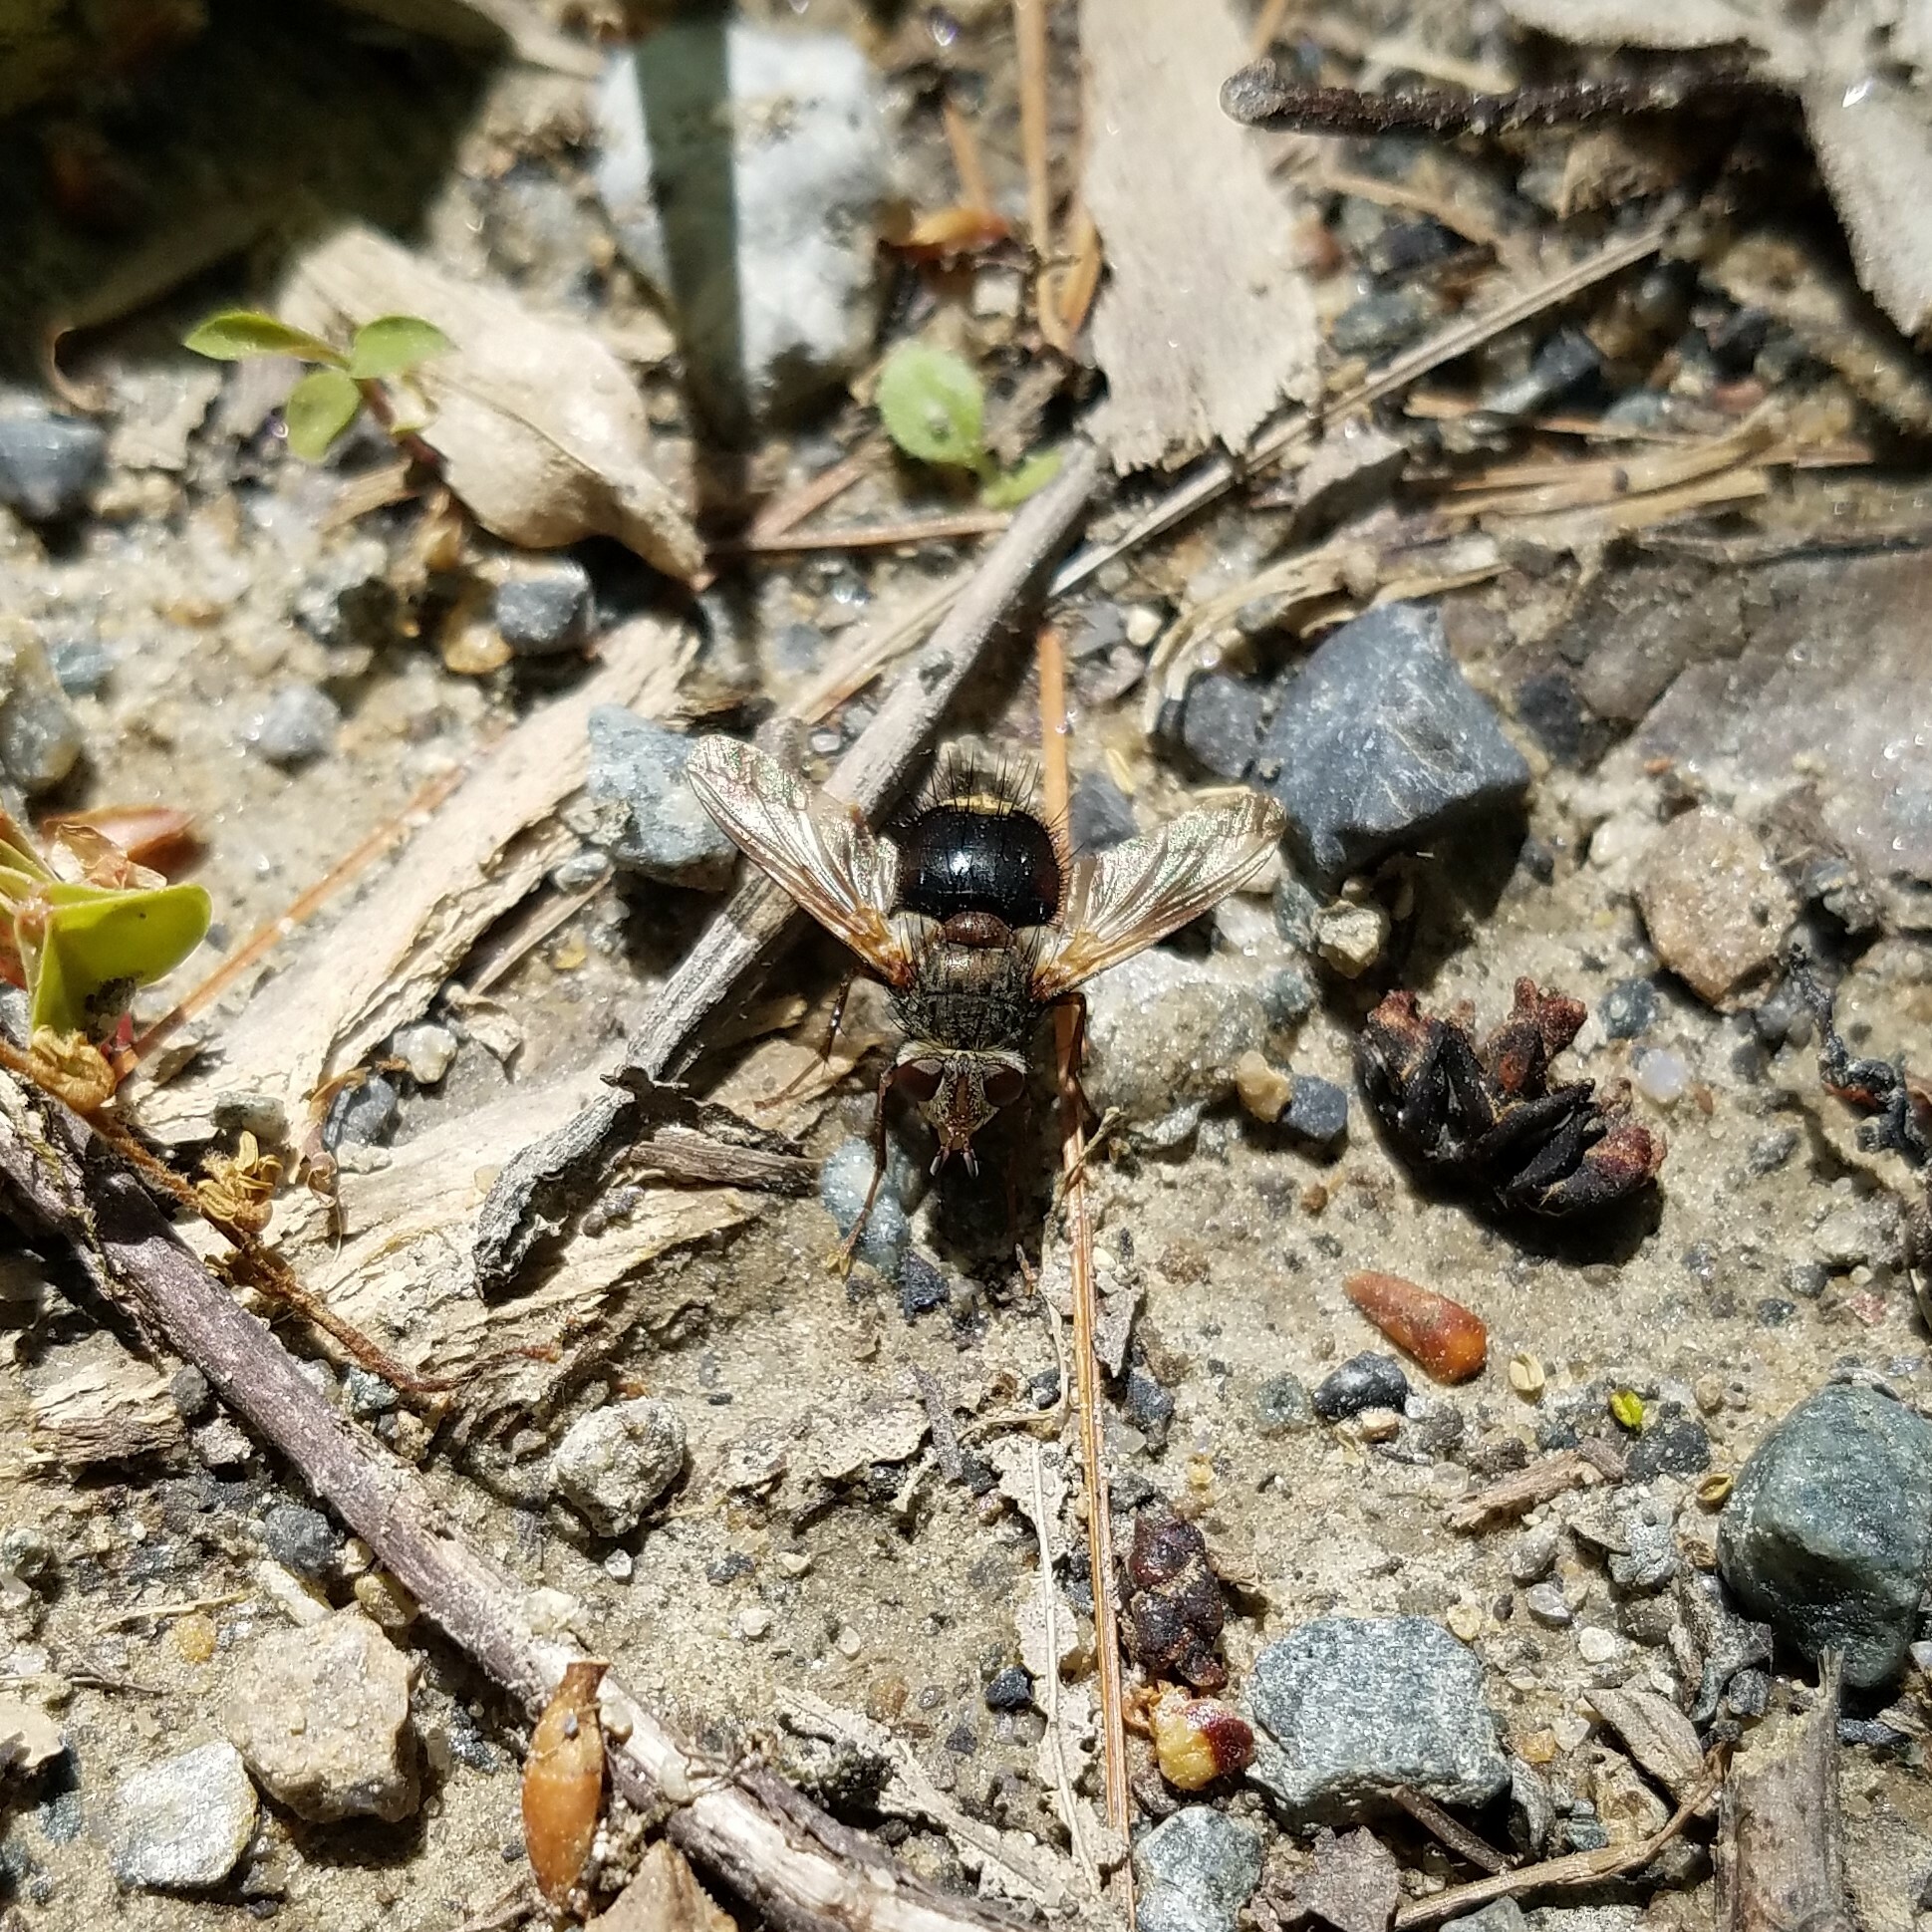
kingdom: Animalia
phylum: Arthropoda
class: Insecta
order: Diptera
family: Tachinidae
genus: Epalpus
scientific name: Epalpus signifer
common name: Early tachinid fly
